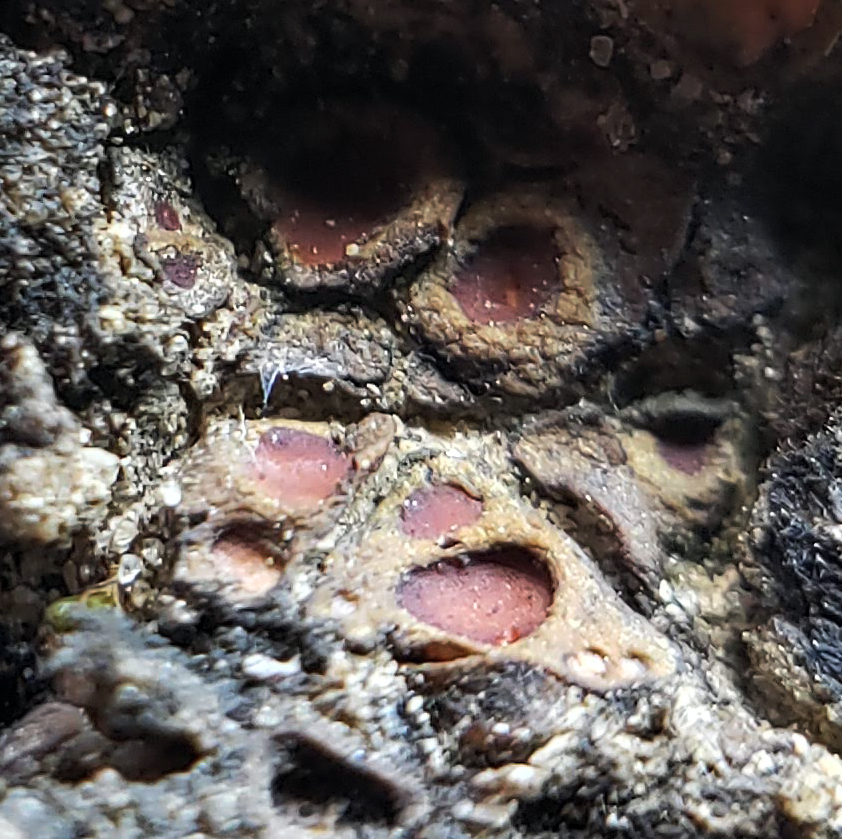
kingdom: Fungi
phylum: Ascomycota
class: Lichinomycetes
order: Lichinales
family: Lichinaceae
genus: Heppia
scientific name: Heppia adglutinata
